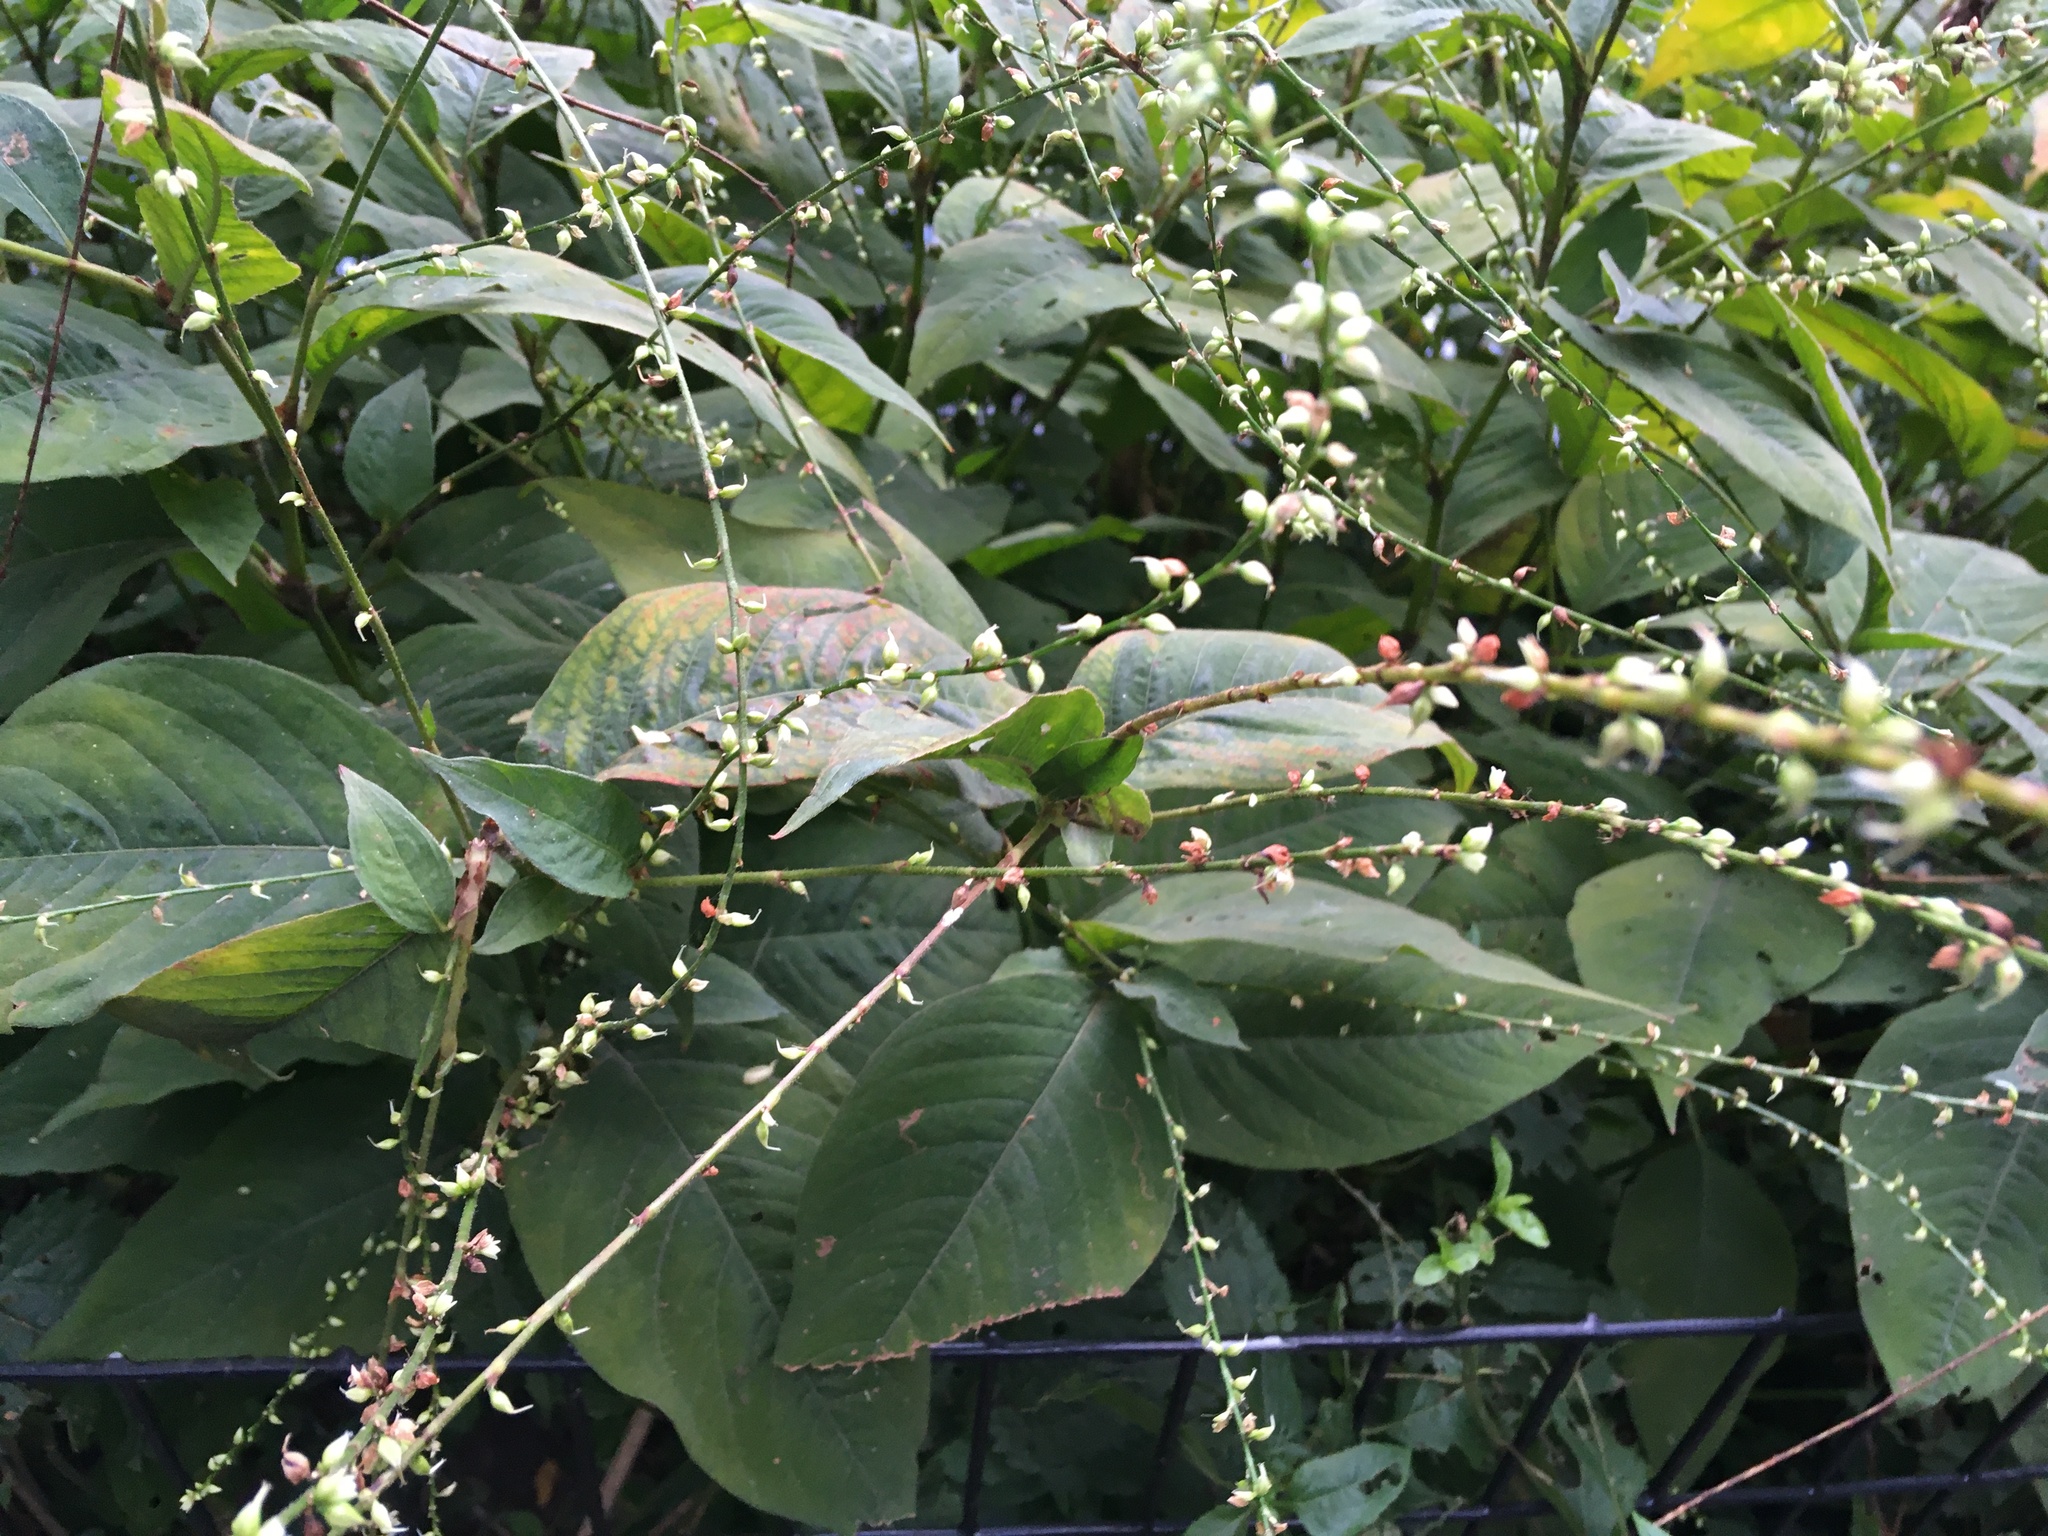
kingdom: Plantae
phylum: Tracheophyta
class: Magnoliopsida
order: Caryophyllales
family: Polygonaceae
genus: Persicaria
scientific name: Persicaria virginiana
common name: Jumpseed
